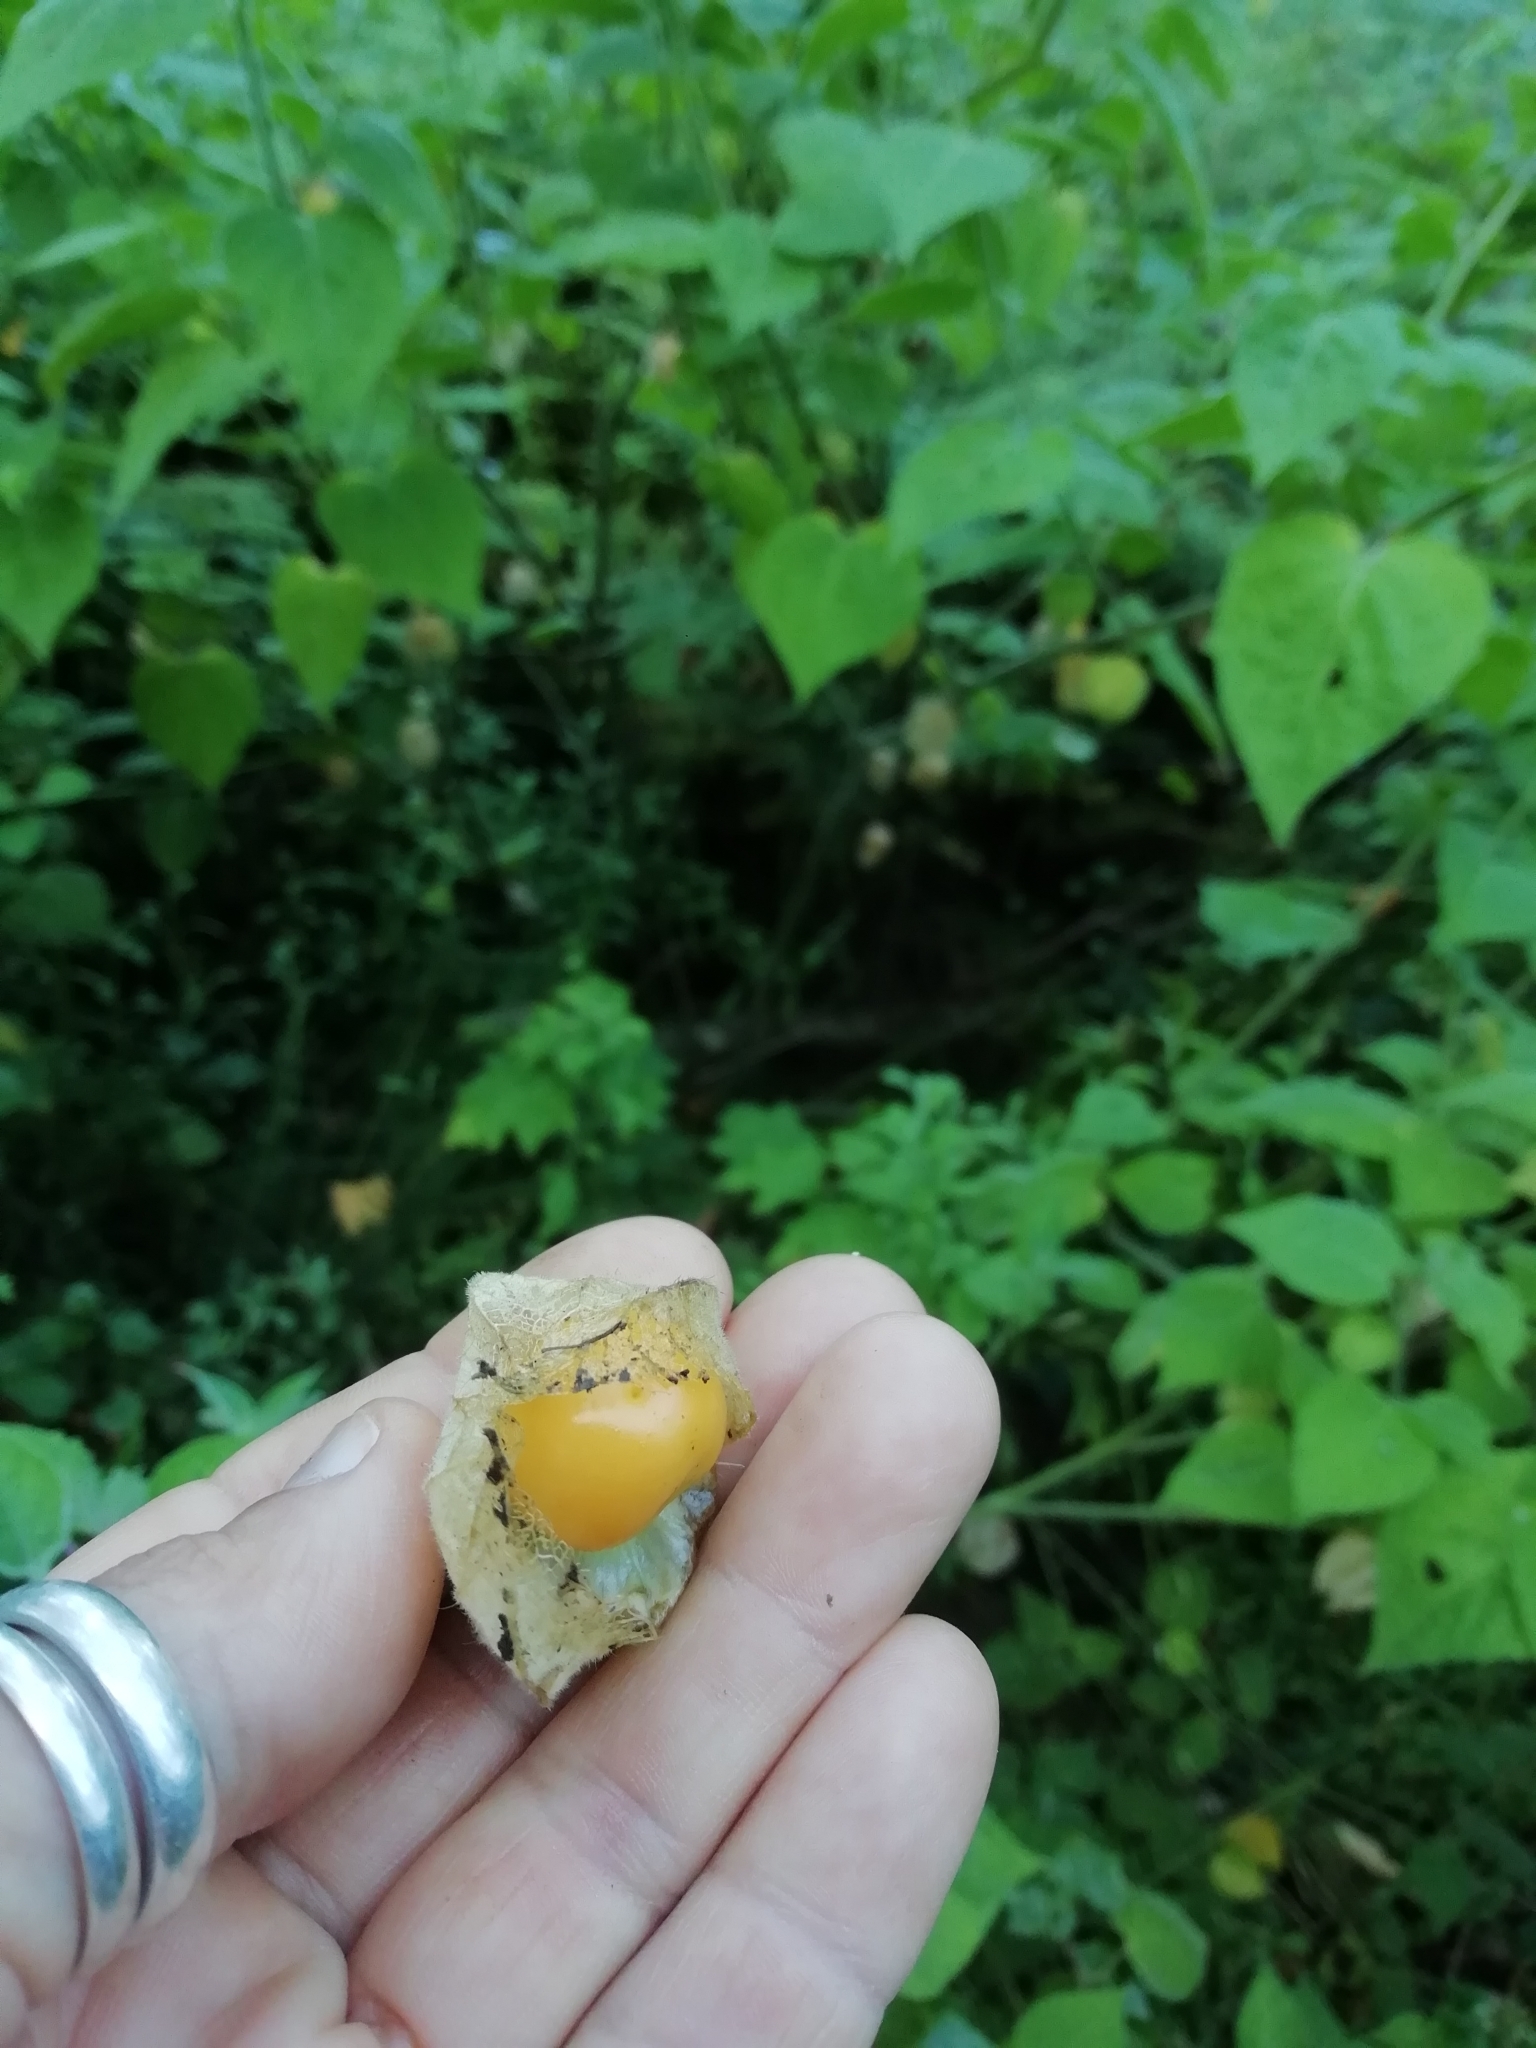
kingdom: Plantae
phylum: Tracheophyta
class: Magnoliopsida
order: Solanales
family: Solanaceae
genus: Physalis
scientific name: Physalis peruviana
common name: Cape-gooseberry
